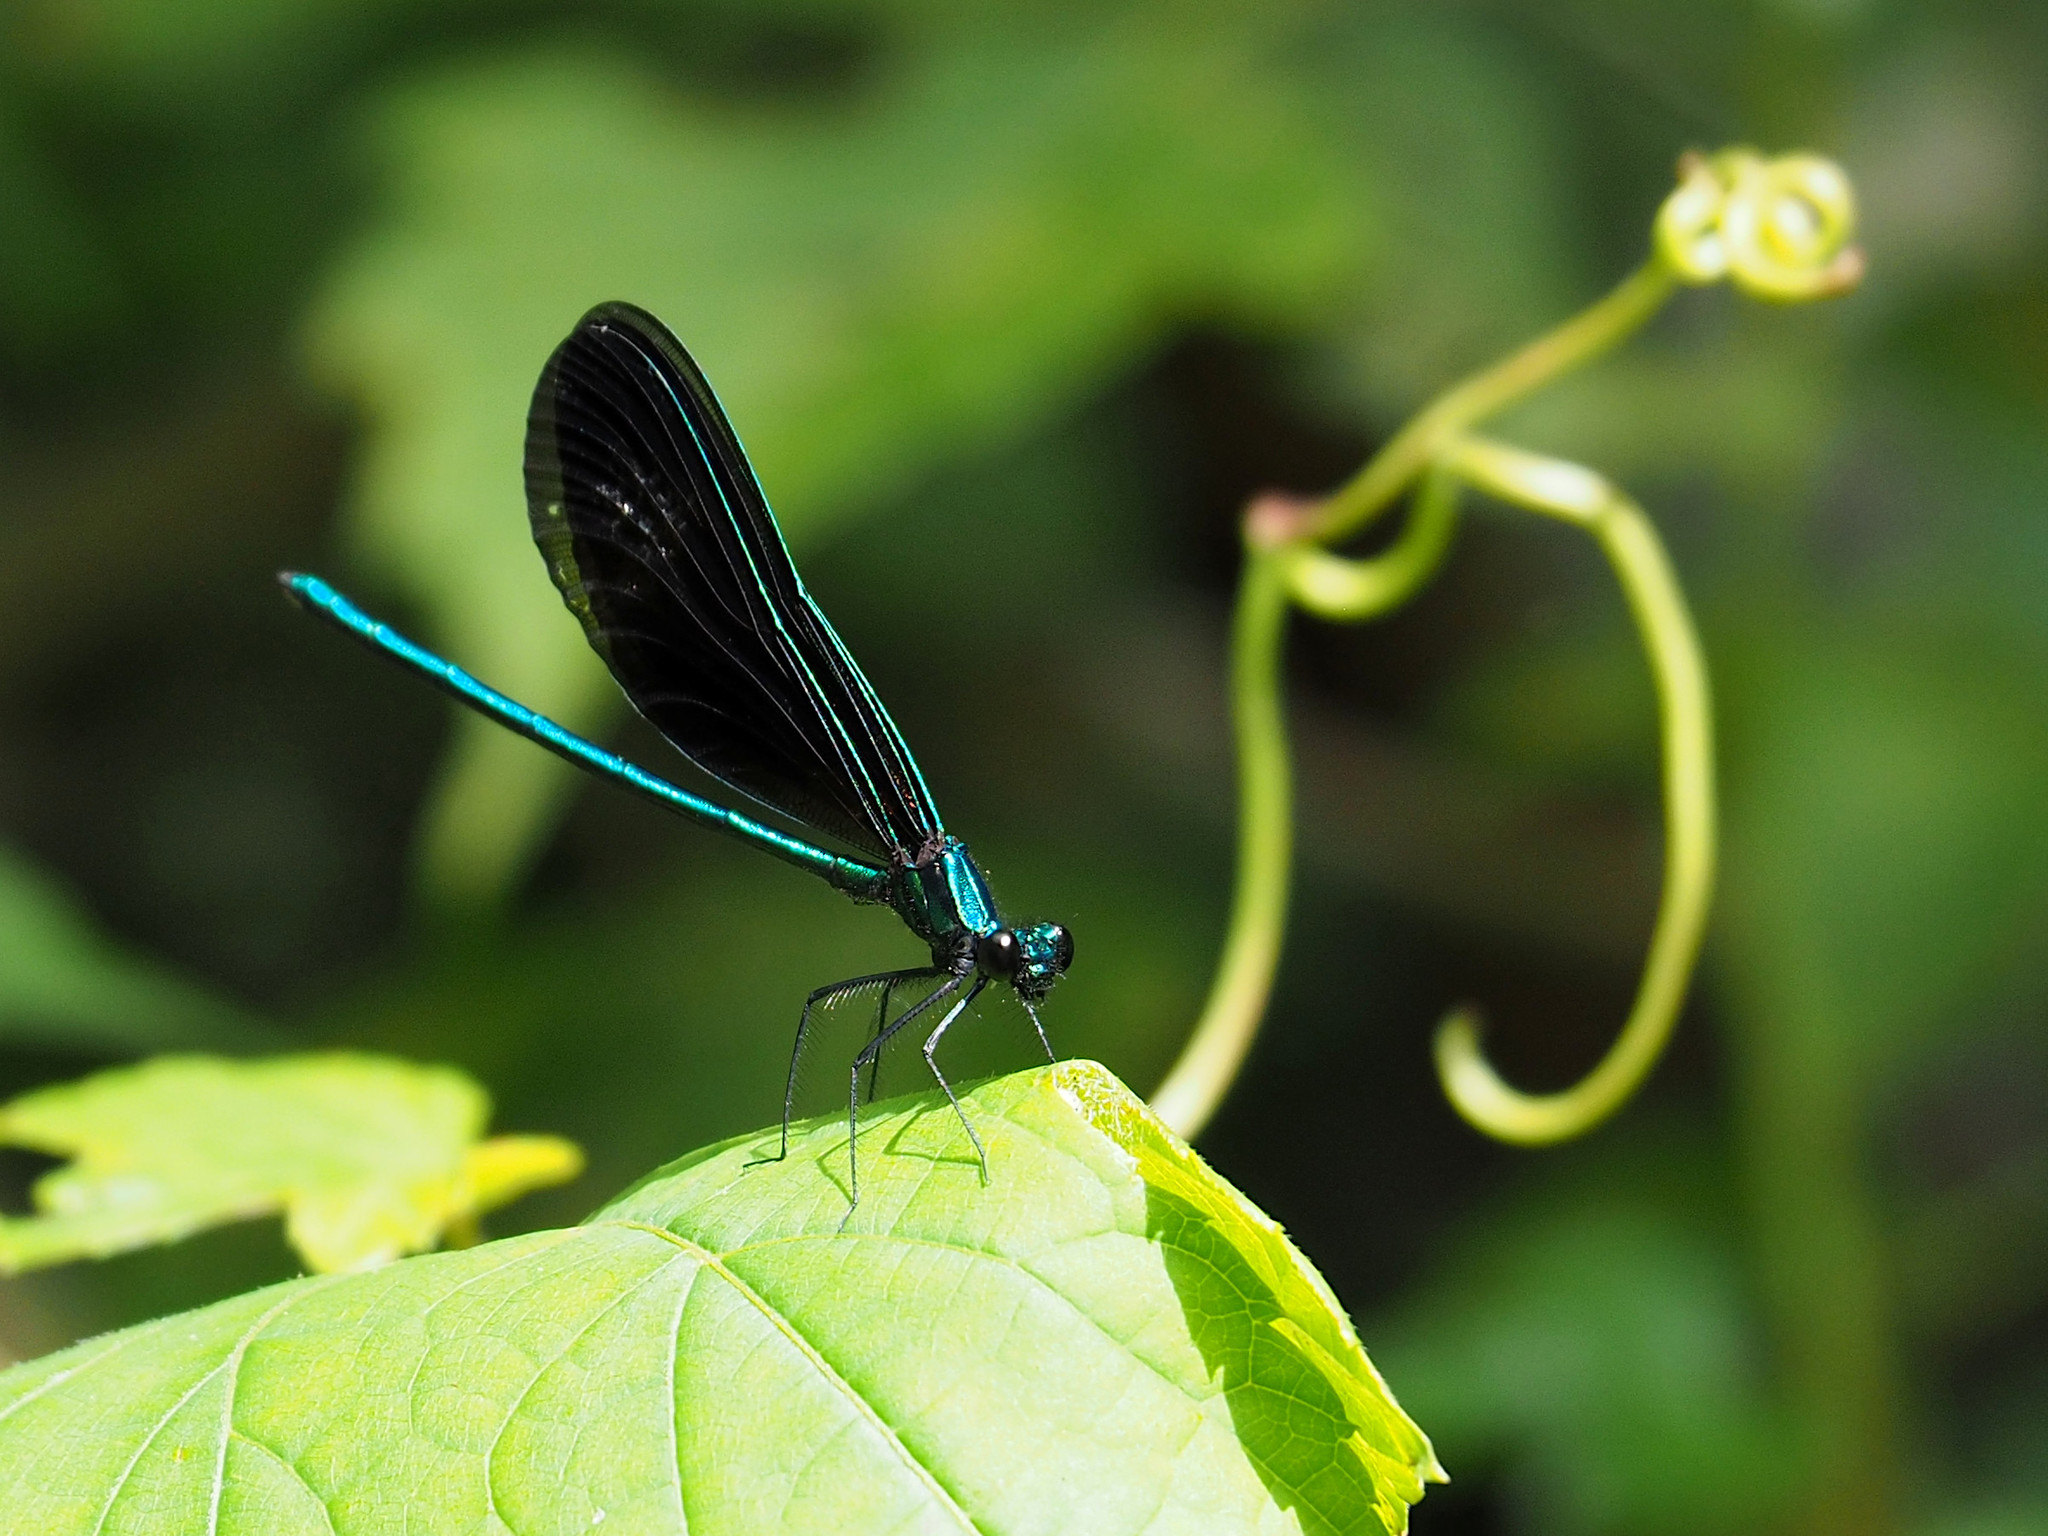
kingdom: Animalia
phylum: Arthropoda
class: Insecta
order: Odonata
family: Calopterygidae
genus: Calopteryx
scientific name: Calopteryx maculata
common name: Ebony jewelwing
